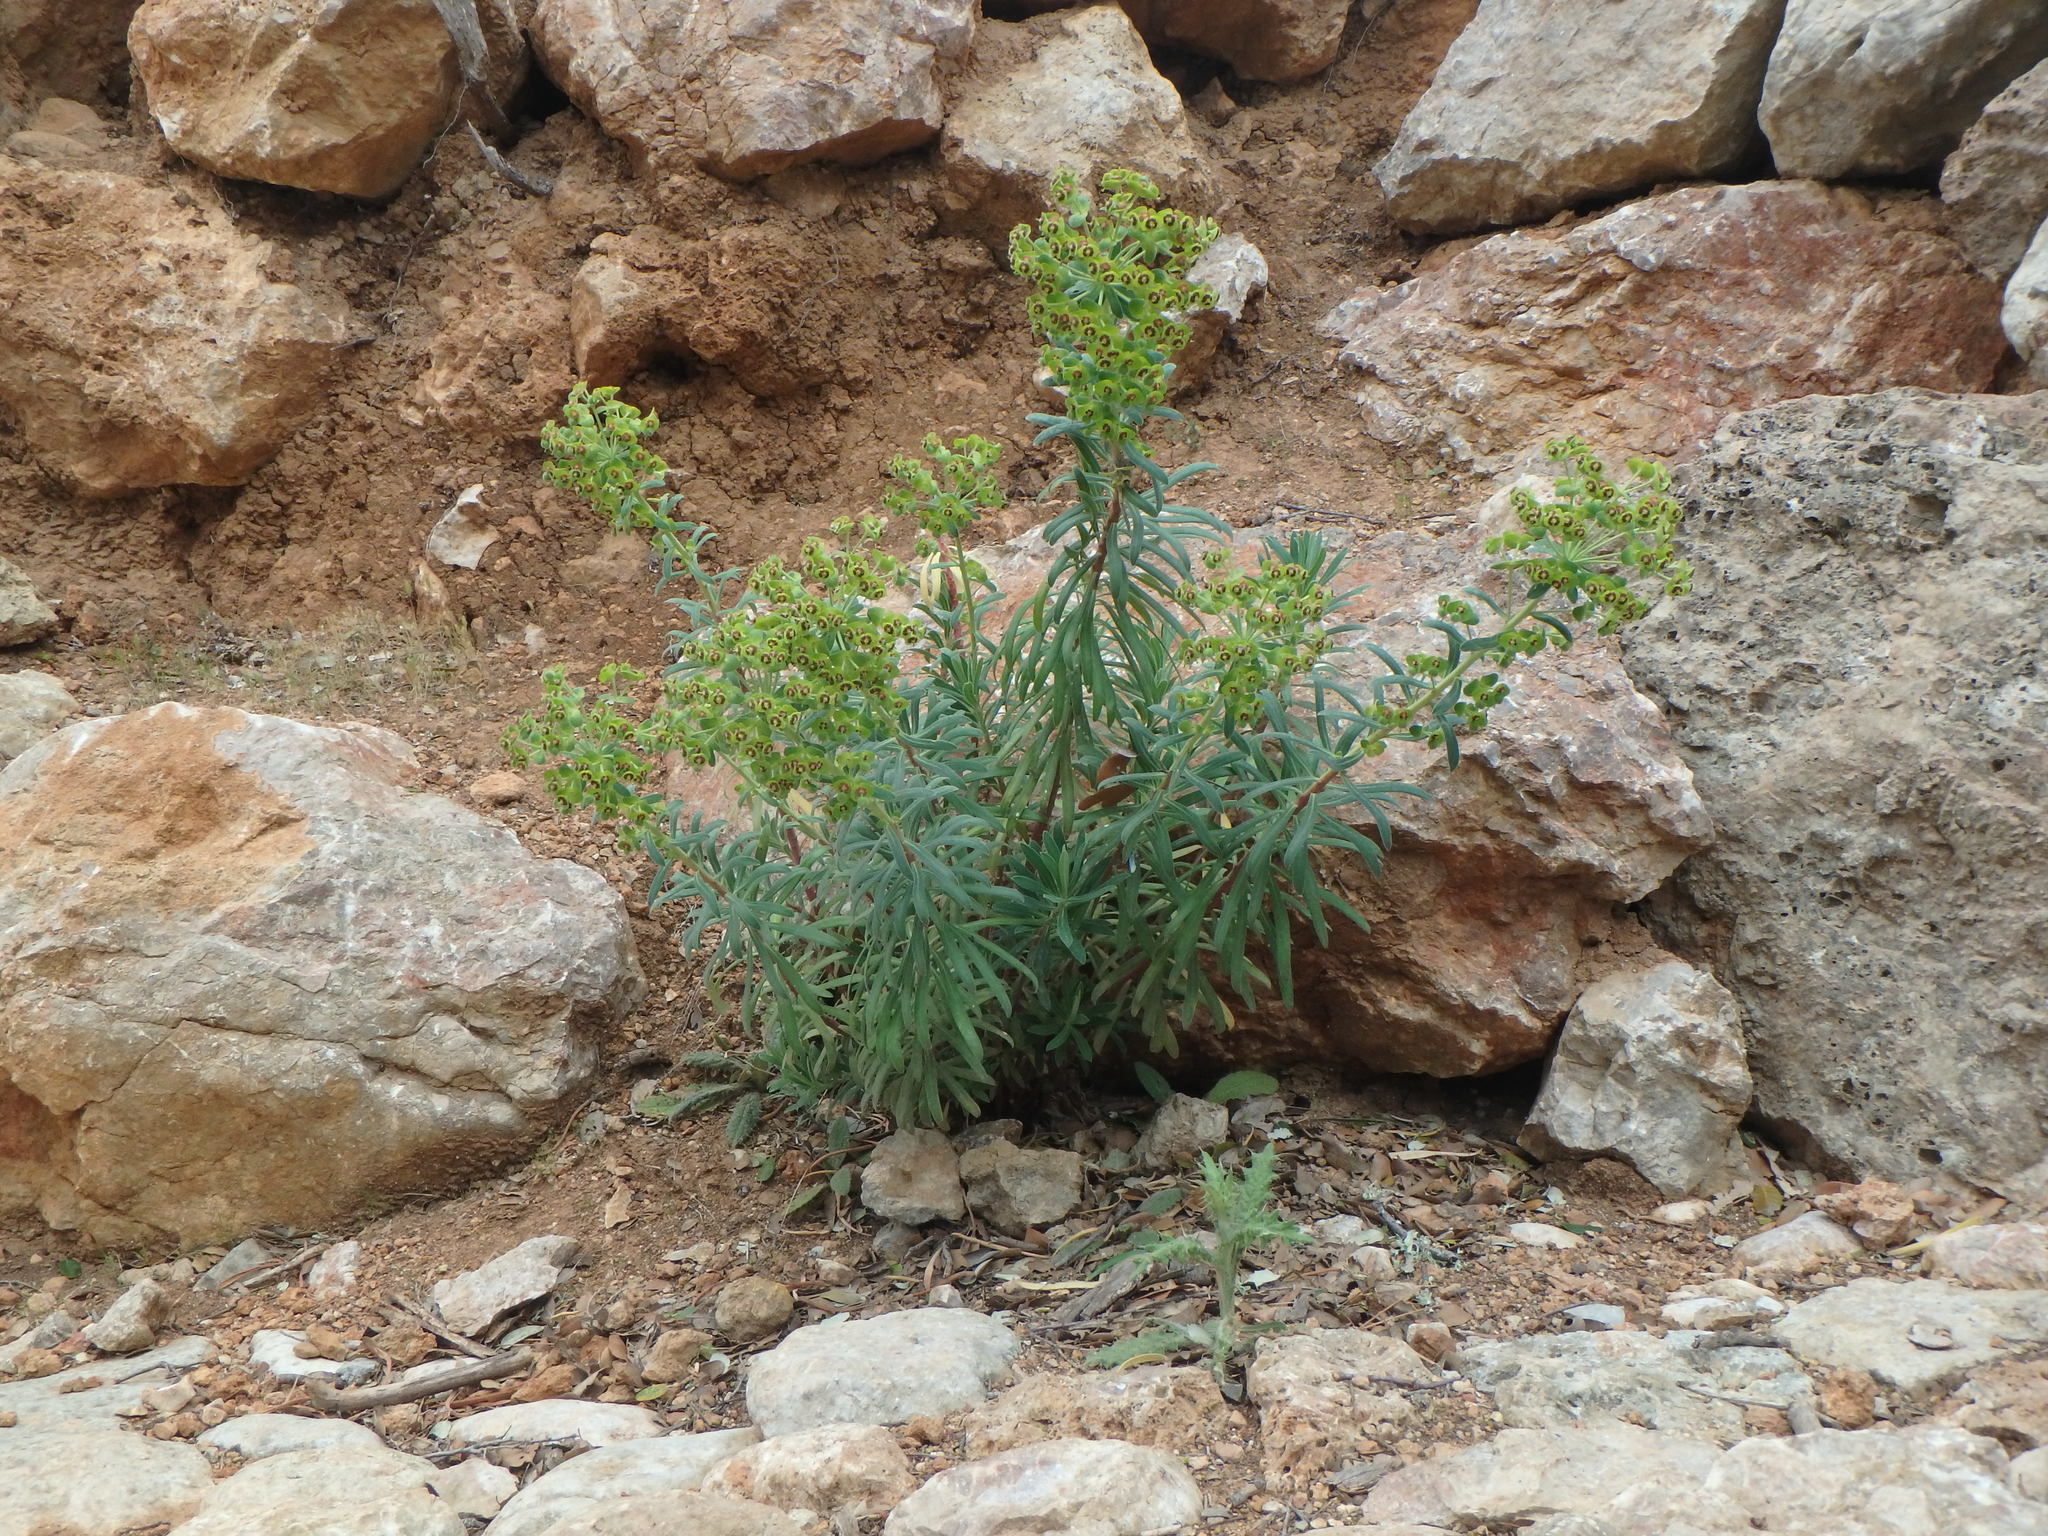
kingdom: Plantae
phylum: Tracheophyta
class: Magnoliopsida
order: Malpighiales
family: Euphorbiaceae
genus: Euphorbia
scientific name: Euphorbia characias
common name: Mediterranean spurge
